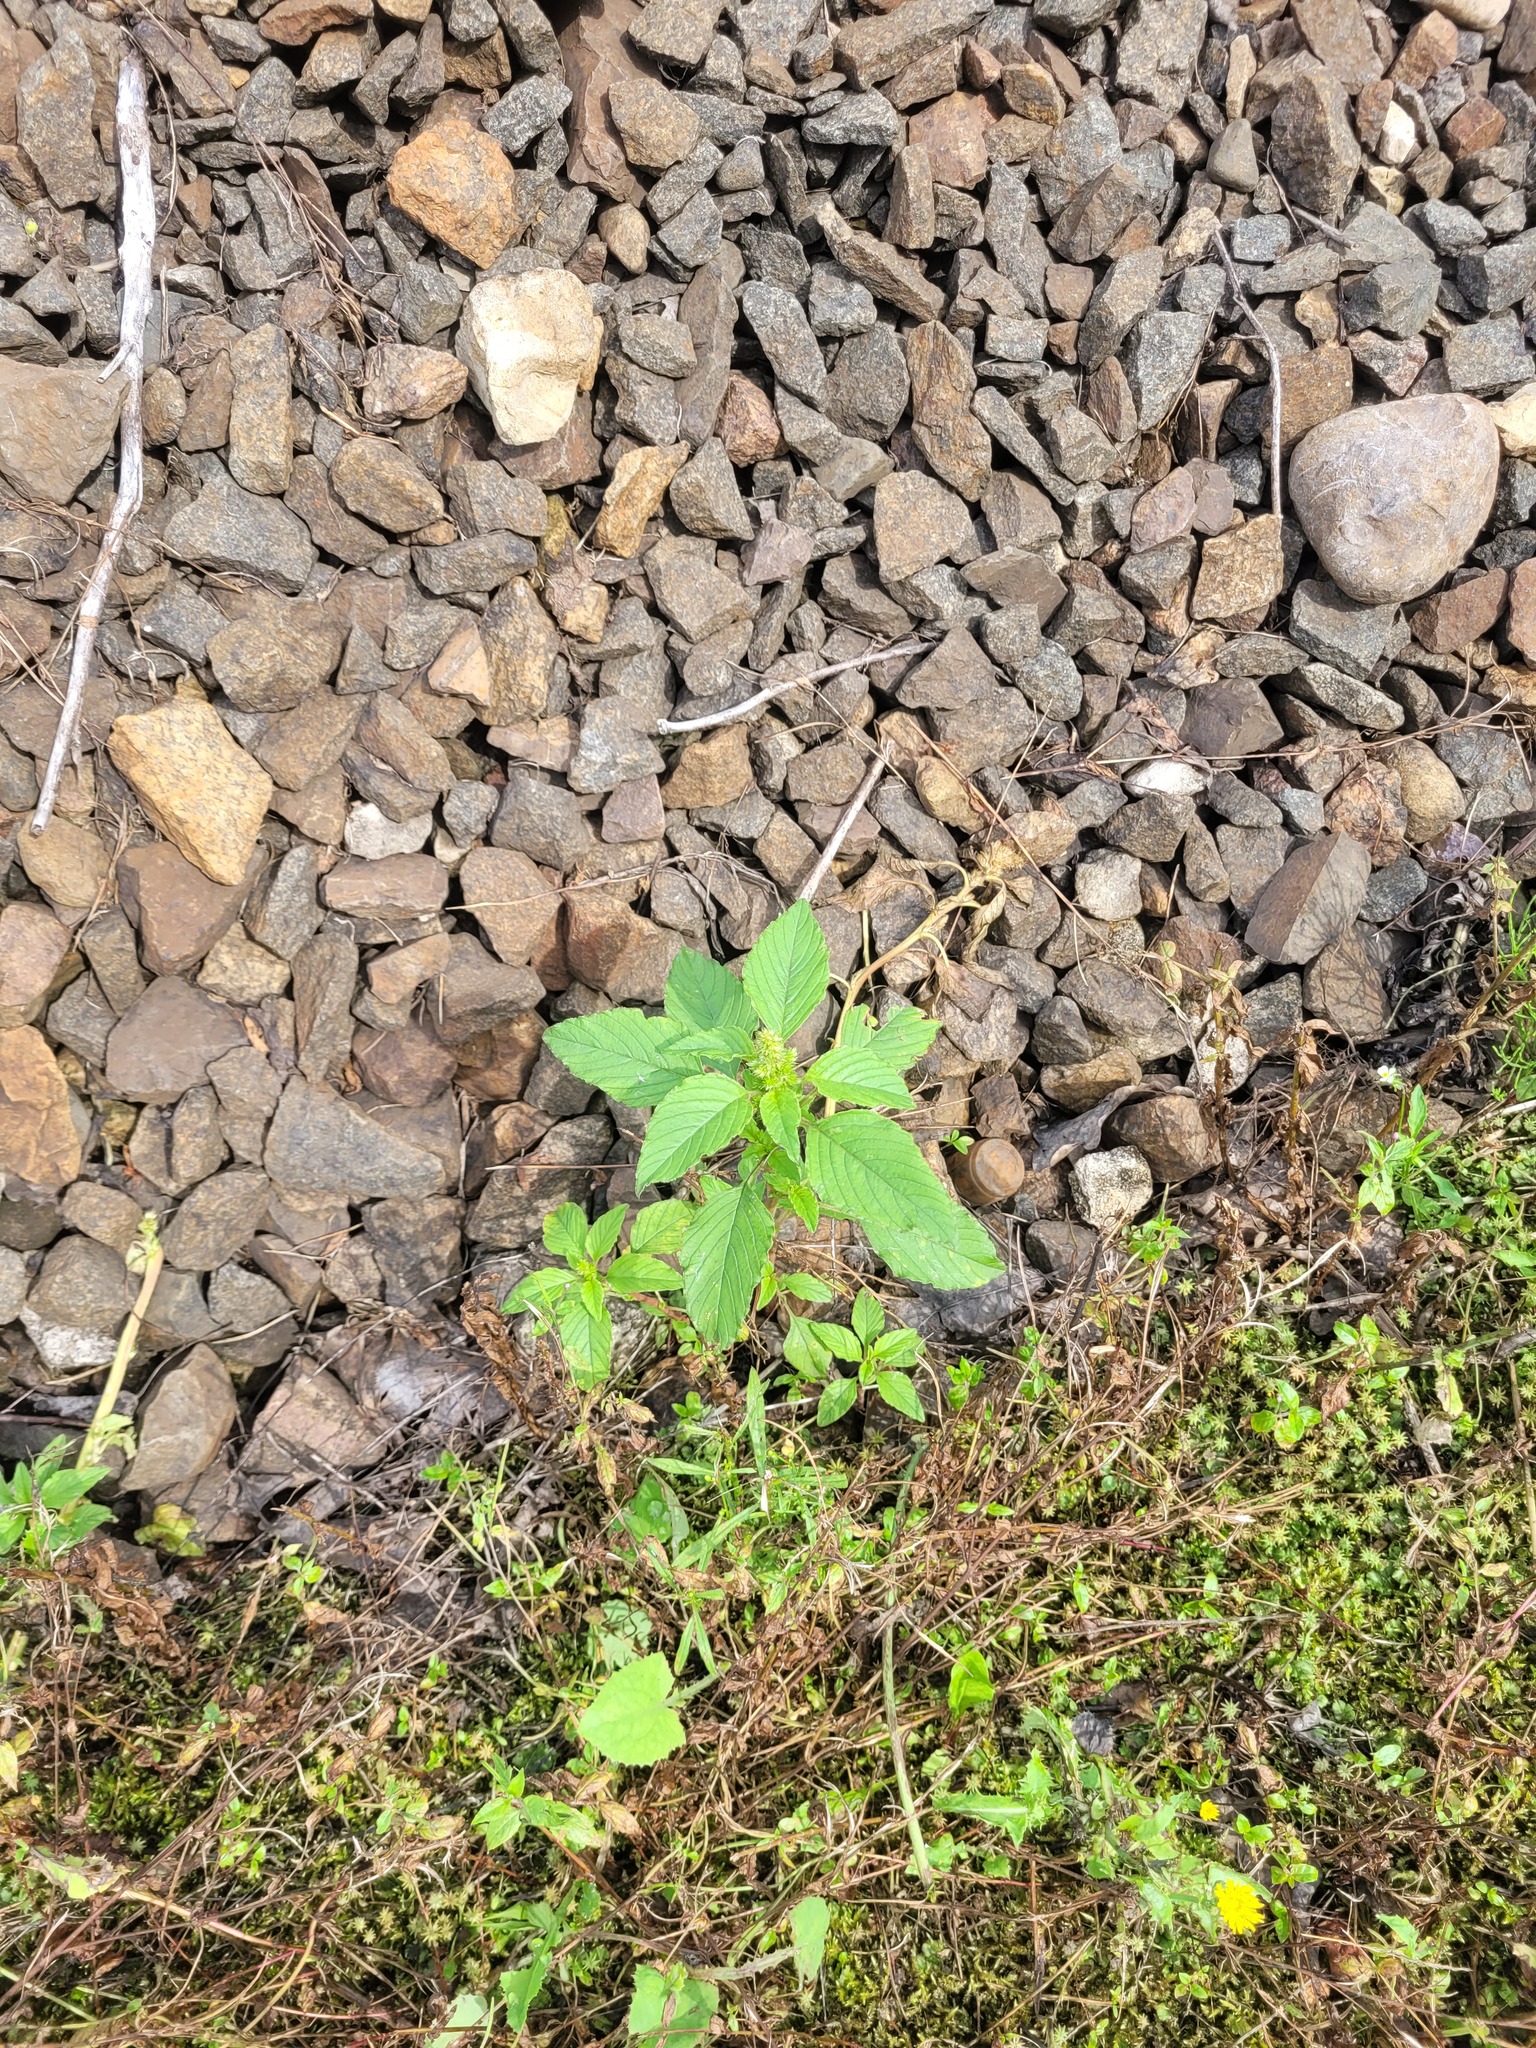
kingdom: Plantae
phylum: Tracheophyta
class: Magnoliopsida
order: Caryophyllales
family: Amaranthaceae
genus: Amaranthus
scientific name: Amaranthus retroflexus
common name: Redroot amaranth
